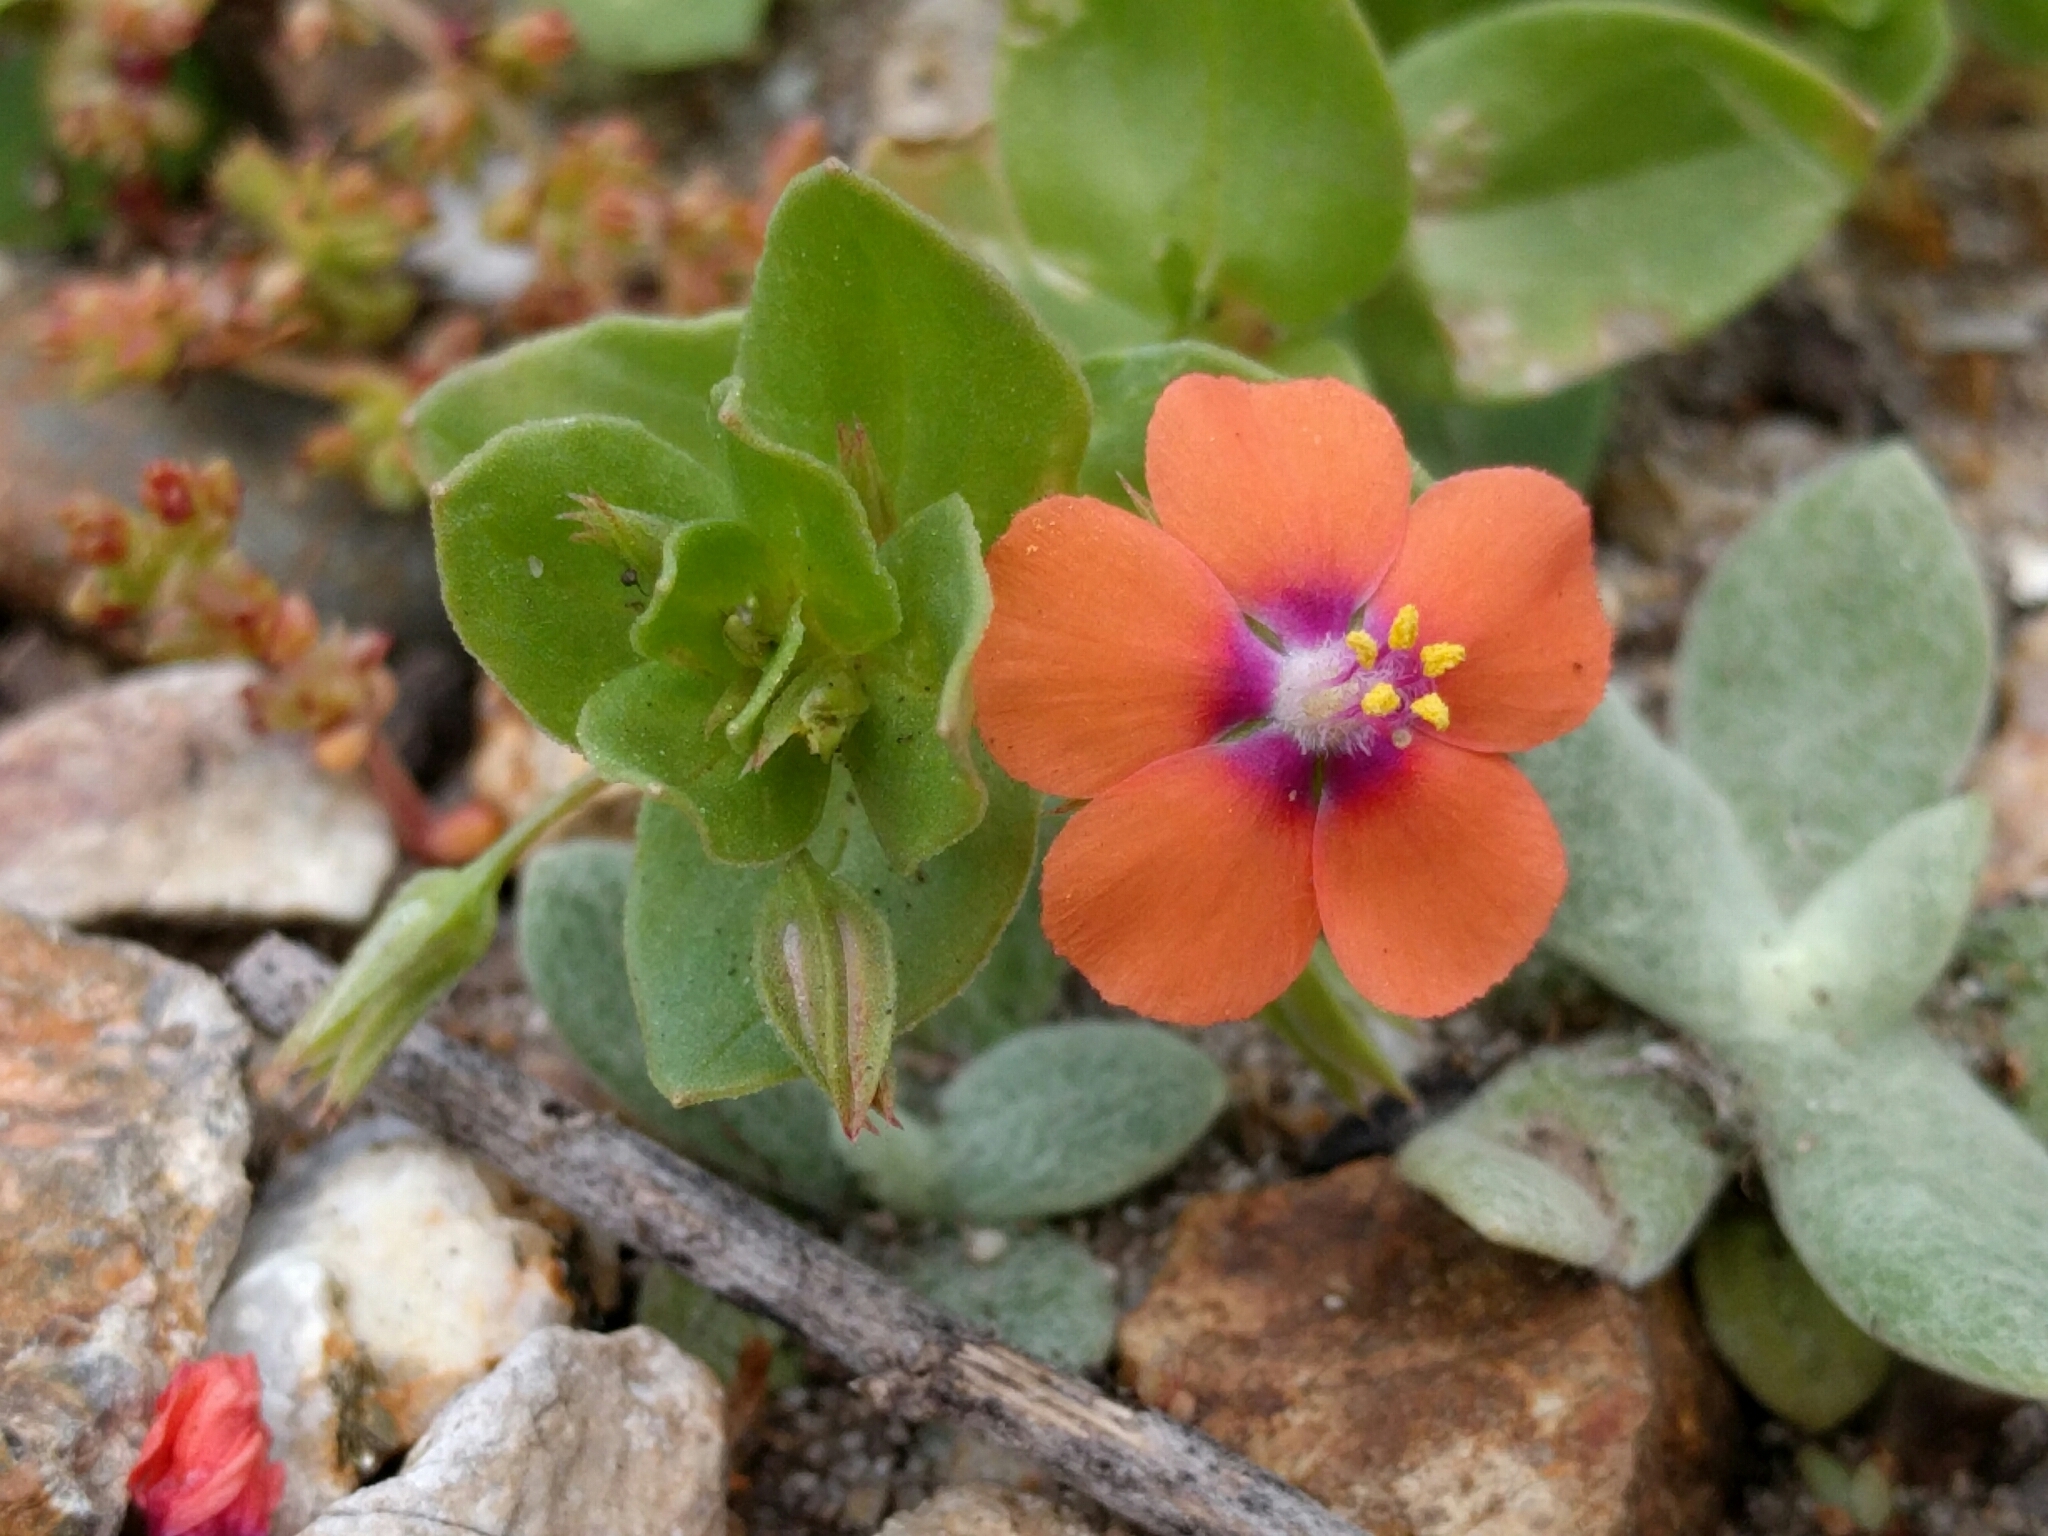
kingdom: Plantae
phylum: Tracheophyta
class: Magnoliopsida
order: Ericales
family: Primulaceae
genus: Lysimachia
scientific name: Lysimachia arvensis
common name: Scarlet pimpernel
